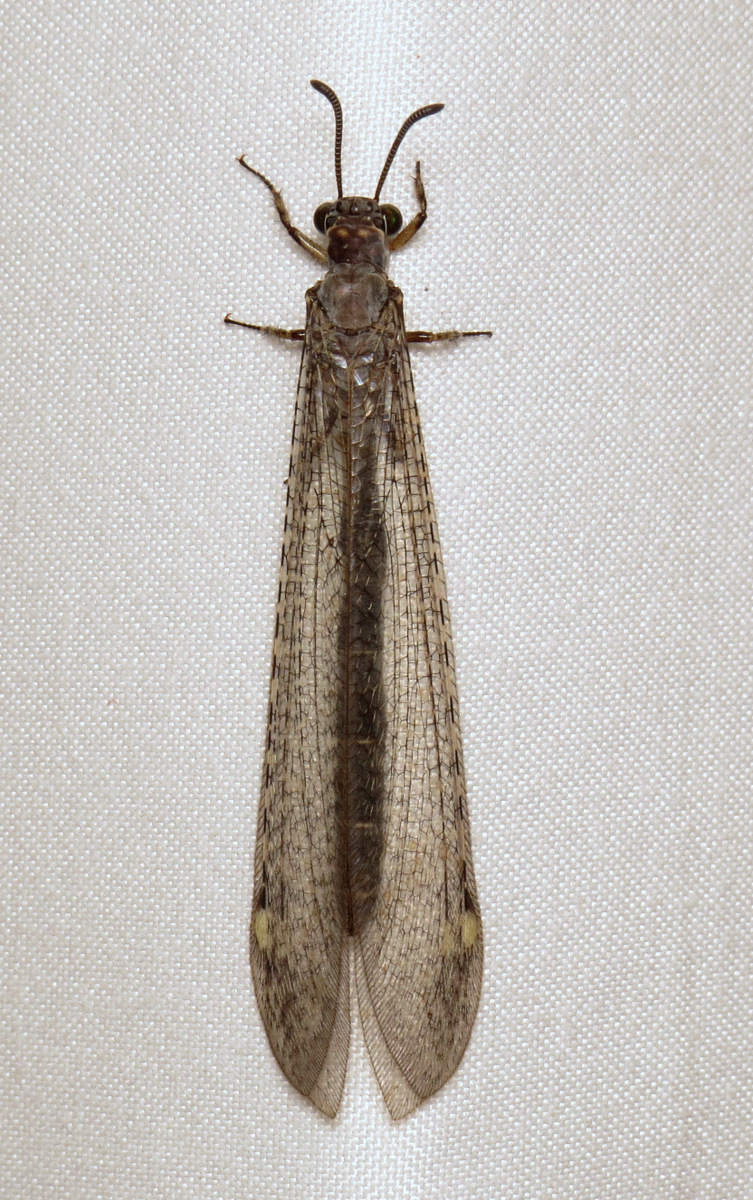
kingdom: Animalia
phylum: Arthropoda
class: Insecta
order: Neuroptera
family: Myrmeleontidae
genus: Myrmeleon
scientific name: Myrmeleon immaculatus
